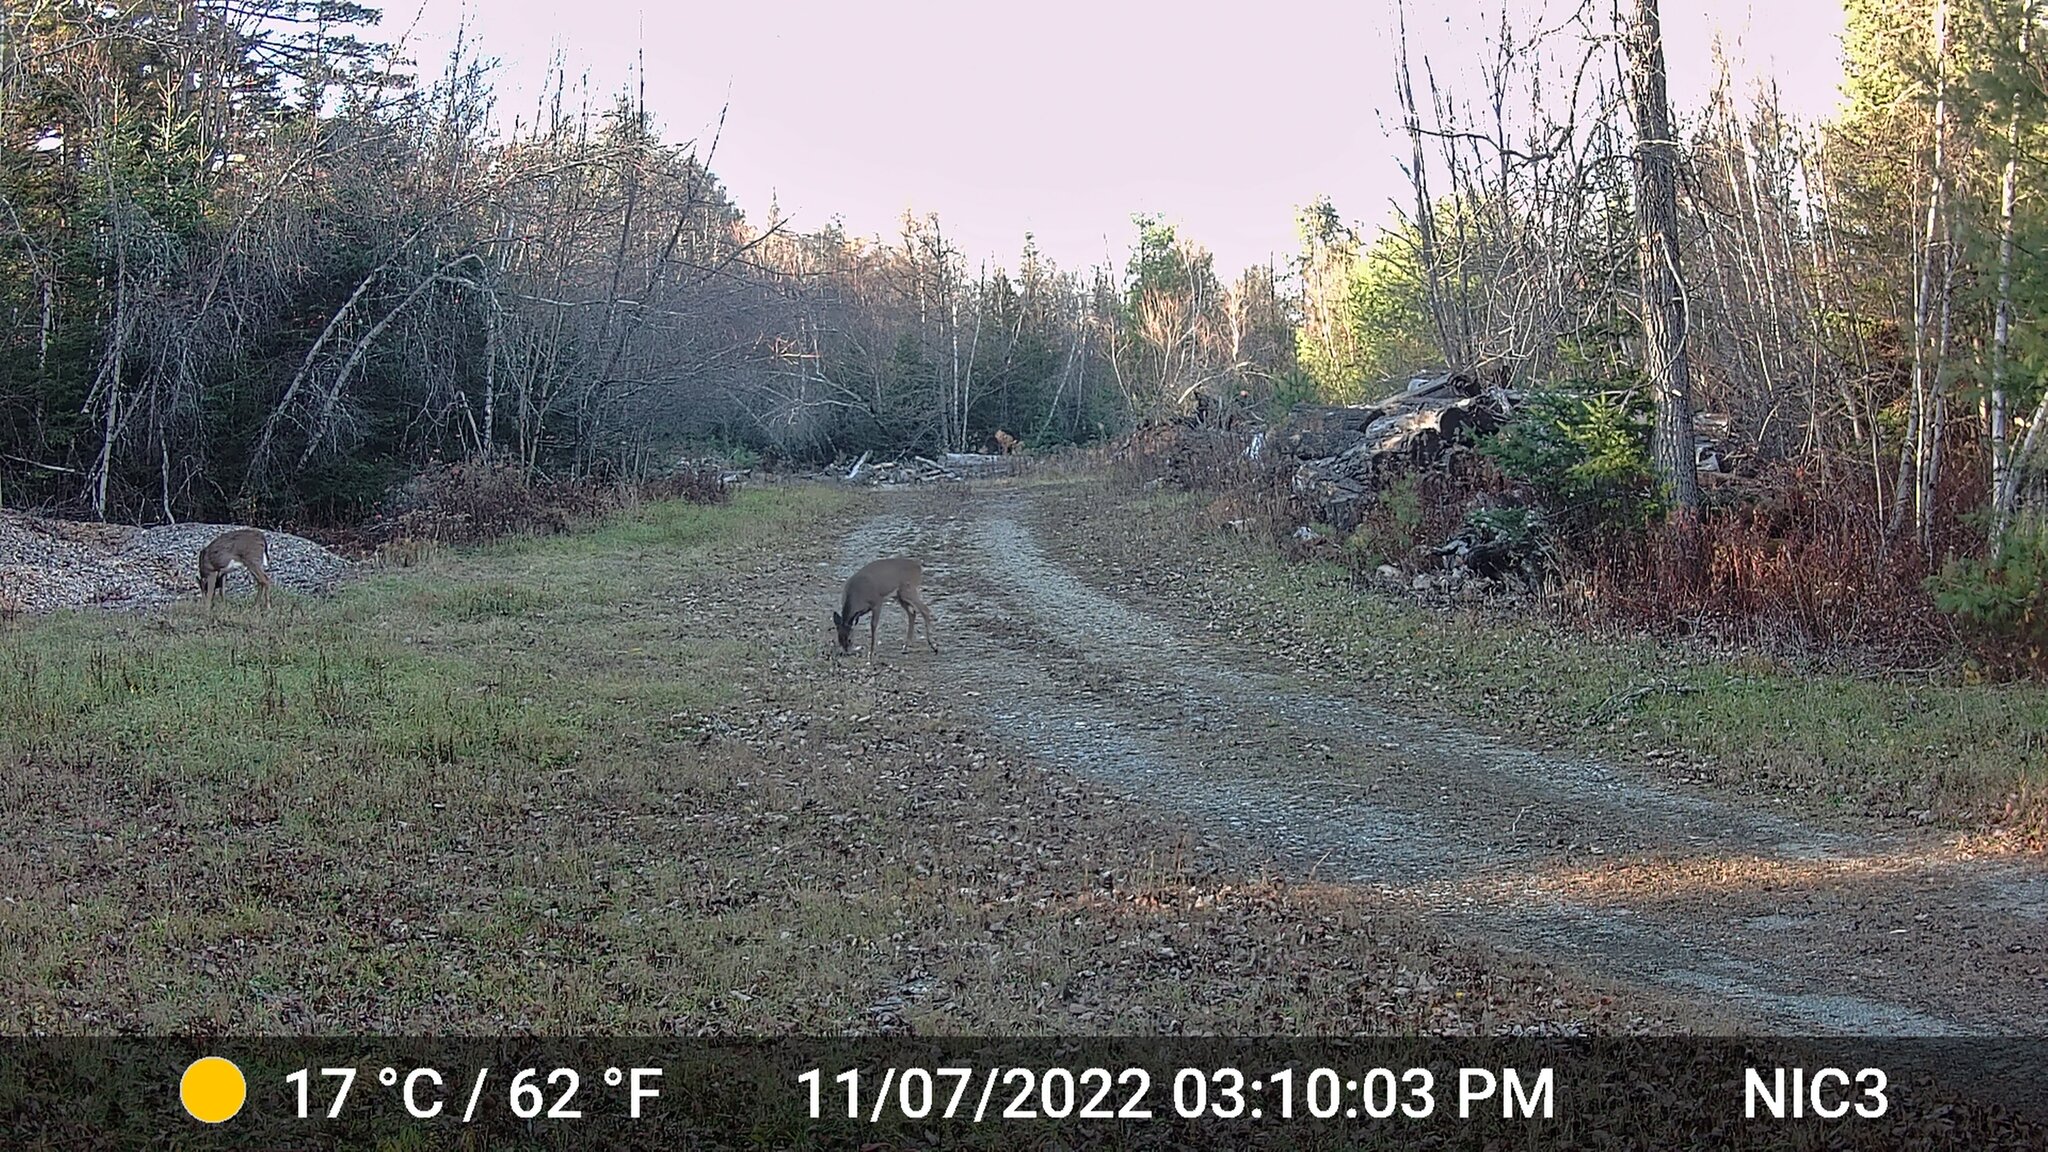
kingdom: Animalia
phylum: Chordata
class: Mammalia
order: Artiodactyla
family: Cervidae
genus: Odocoileus
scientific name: Odocoileus virginianus
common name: White-tailed deer
